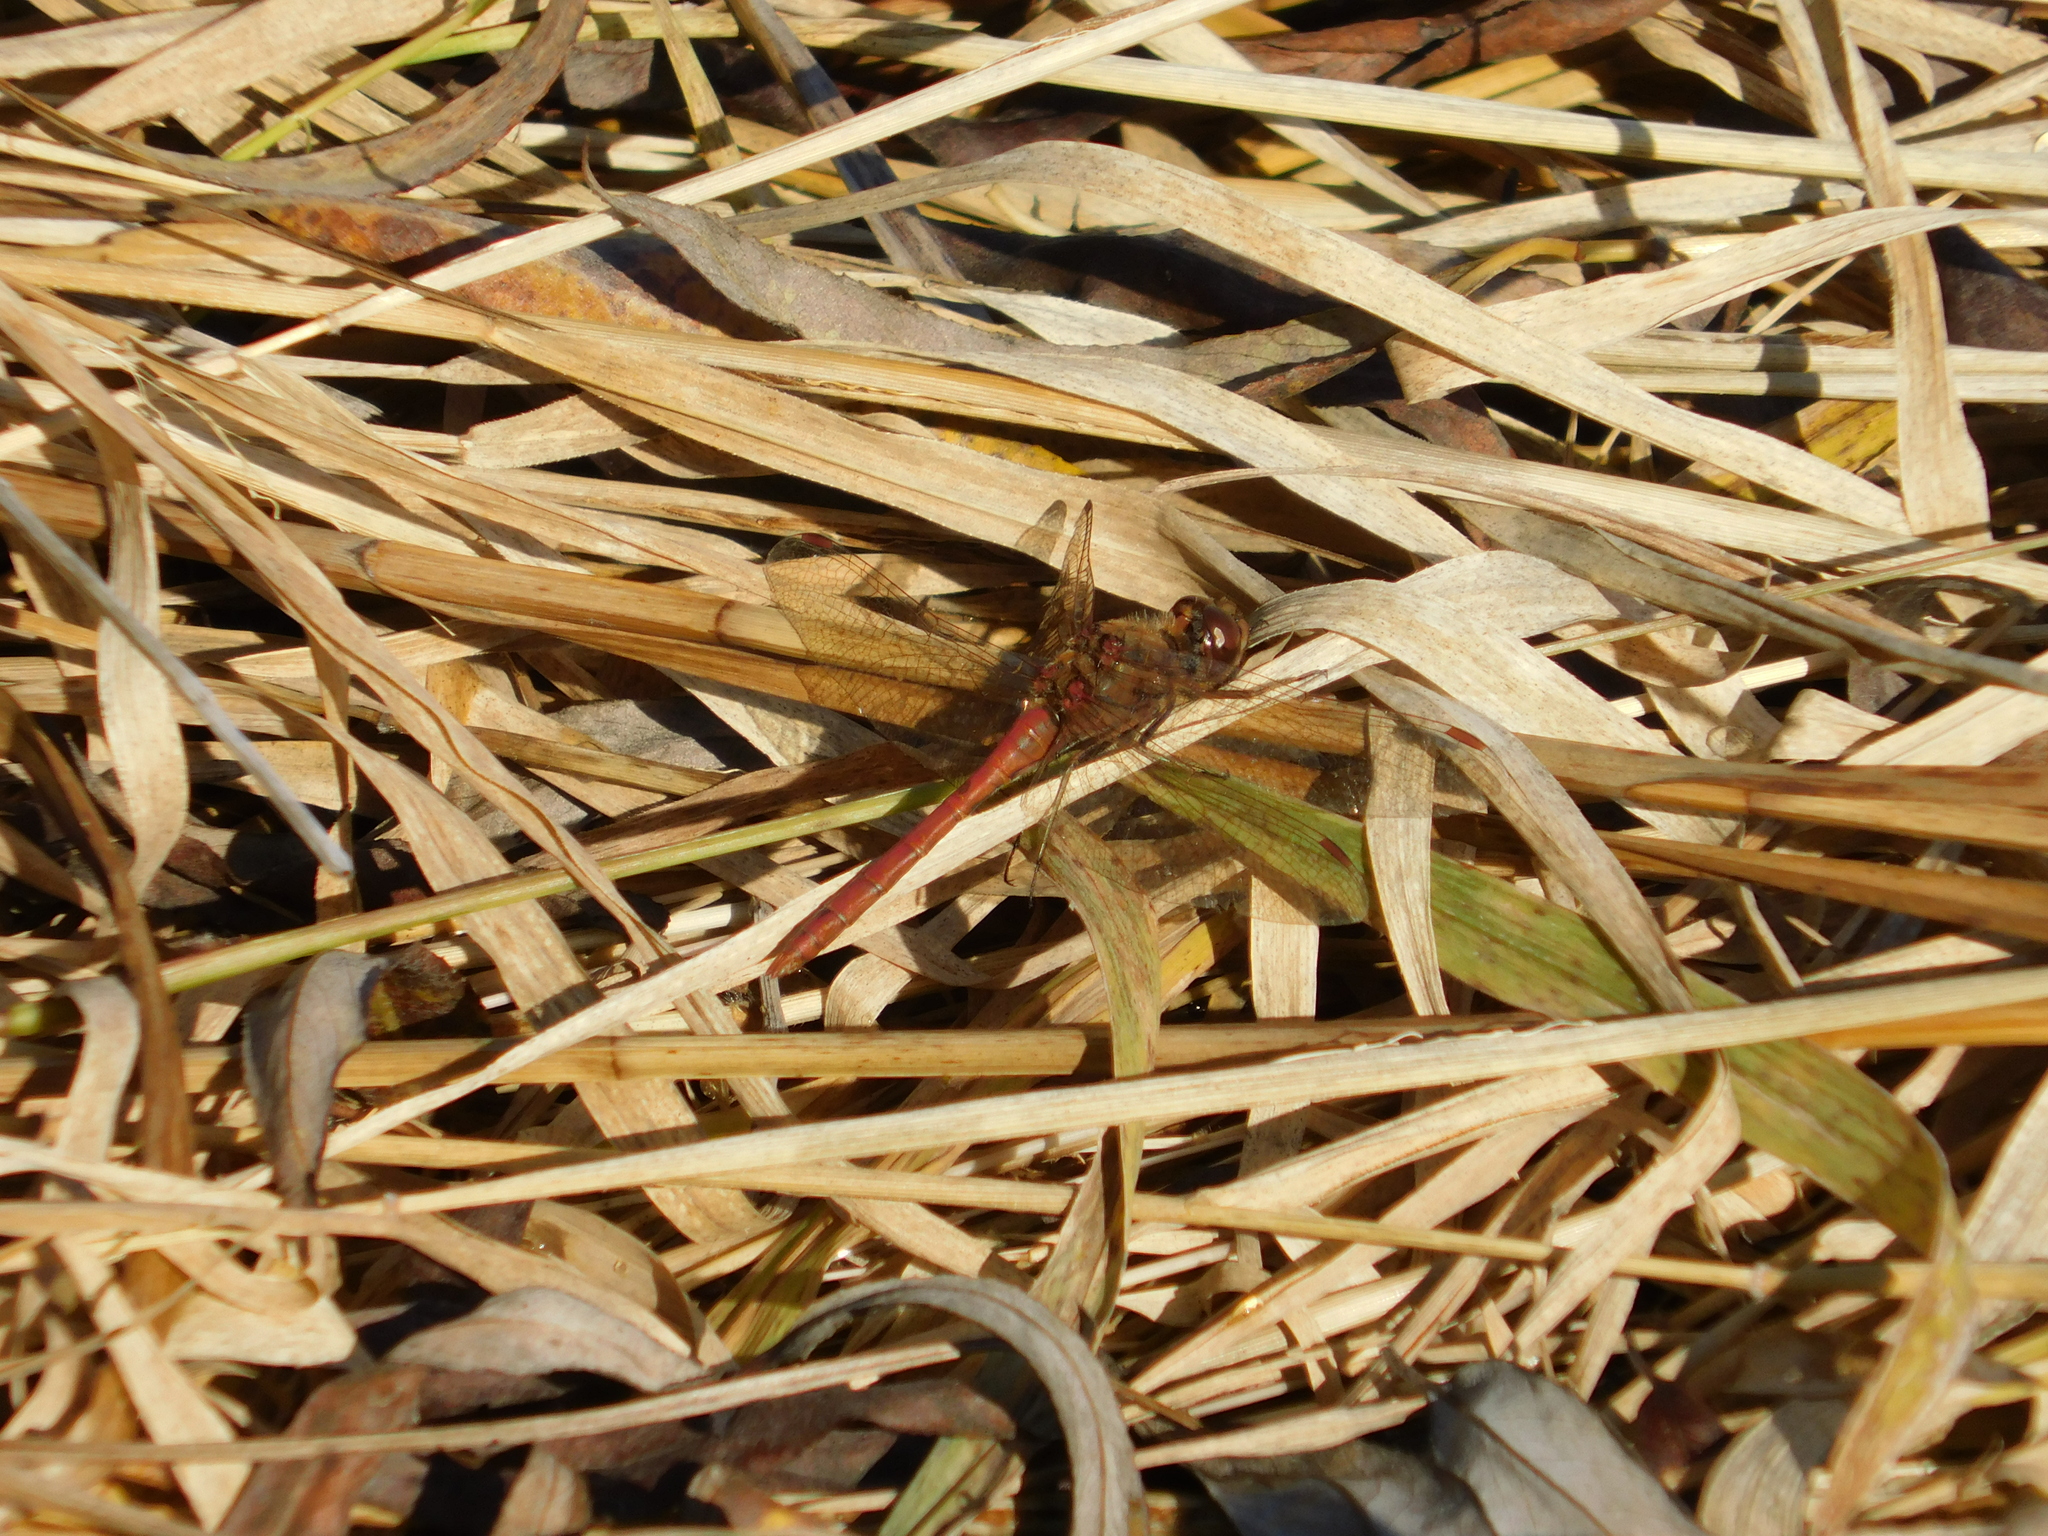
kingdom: Animalia
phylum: Arthropoda
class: Insecta
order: Odonata
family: Libellulidae
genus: Sympetrum
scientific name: Sympetrum vulgatum
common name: Vagrant darter
